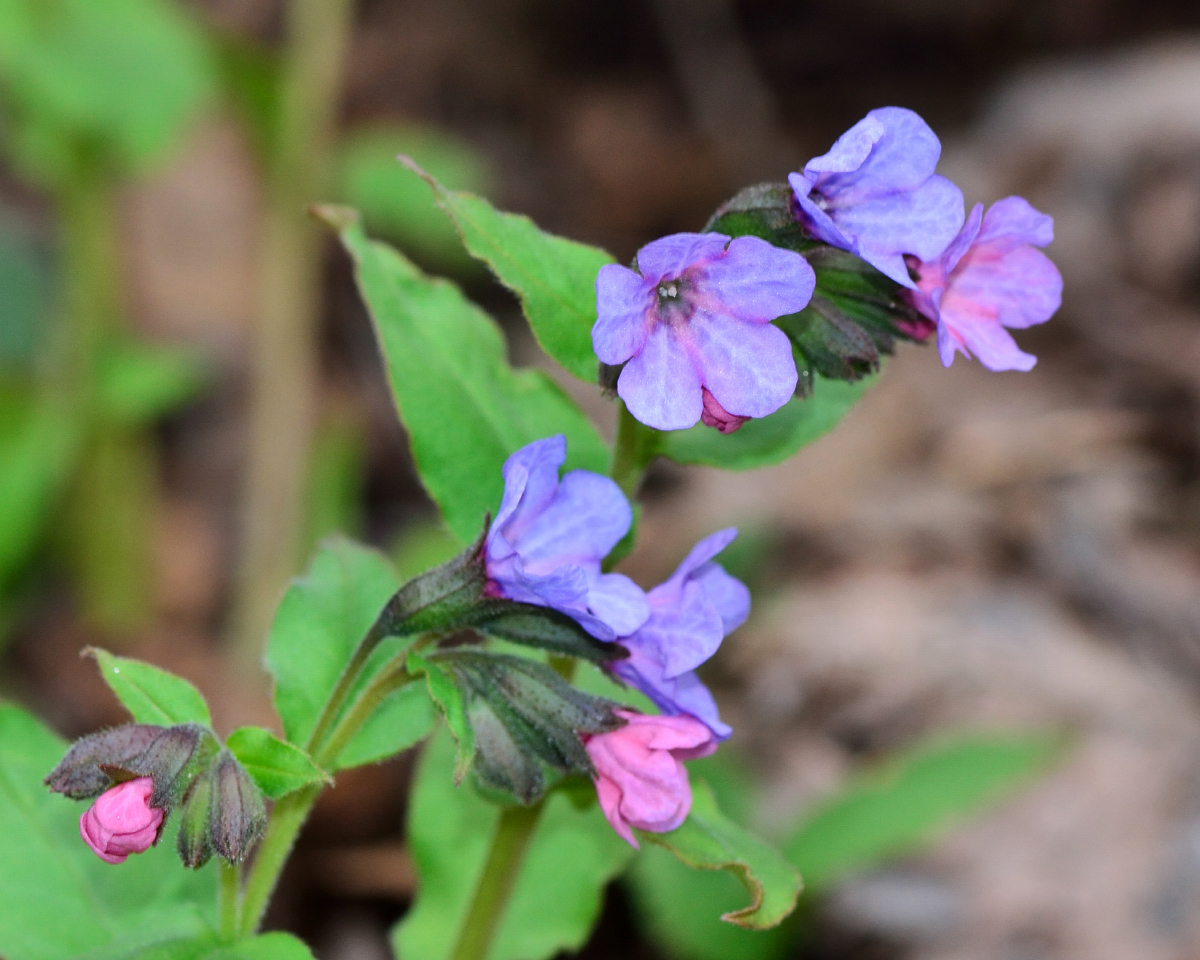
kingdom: Plantae
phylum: Tracheophyta
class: Magnoliopsida
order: Boraginales
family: Boraginaceae
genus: Pulmonaria
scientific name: Pulmonaria obscura
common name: Suffolk lungwort
